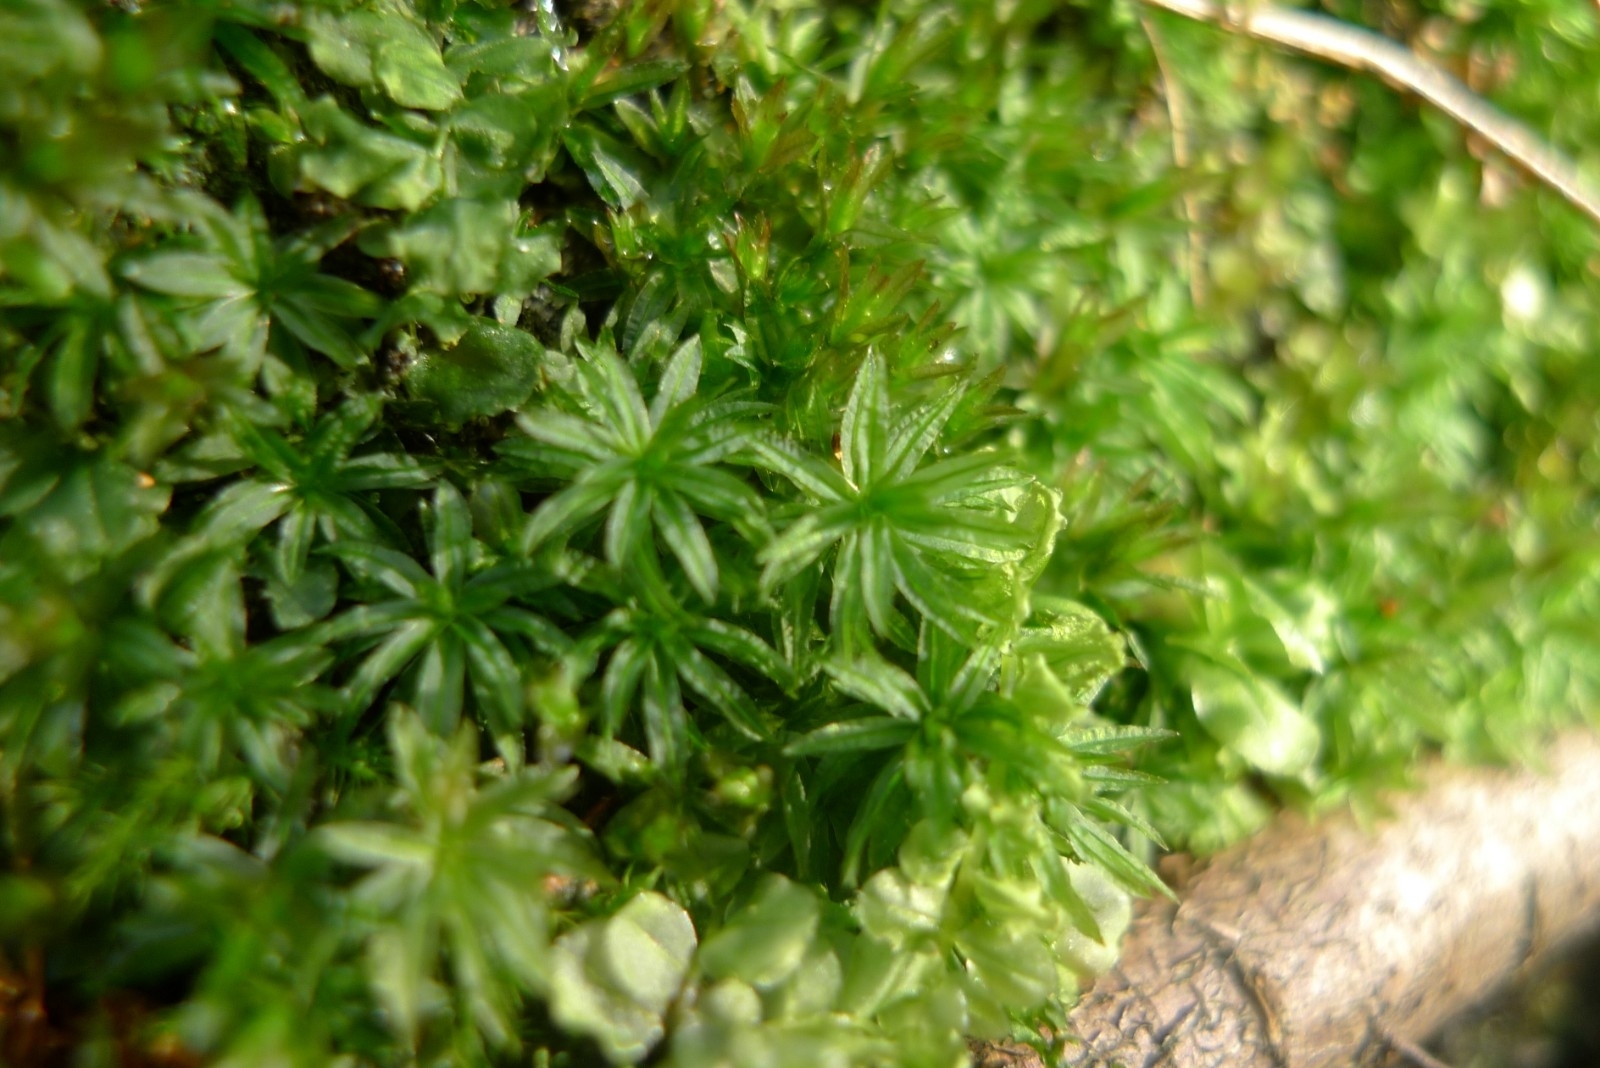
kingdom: Plantae
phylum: Bryophyta
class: Polytrichopsida
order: Polytrichales
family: Polytrichaceae
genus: Atrichum
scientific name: Atrichum undulatum
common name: Common smoothcap
